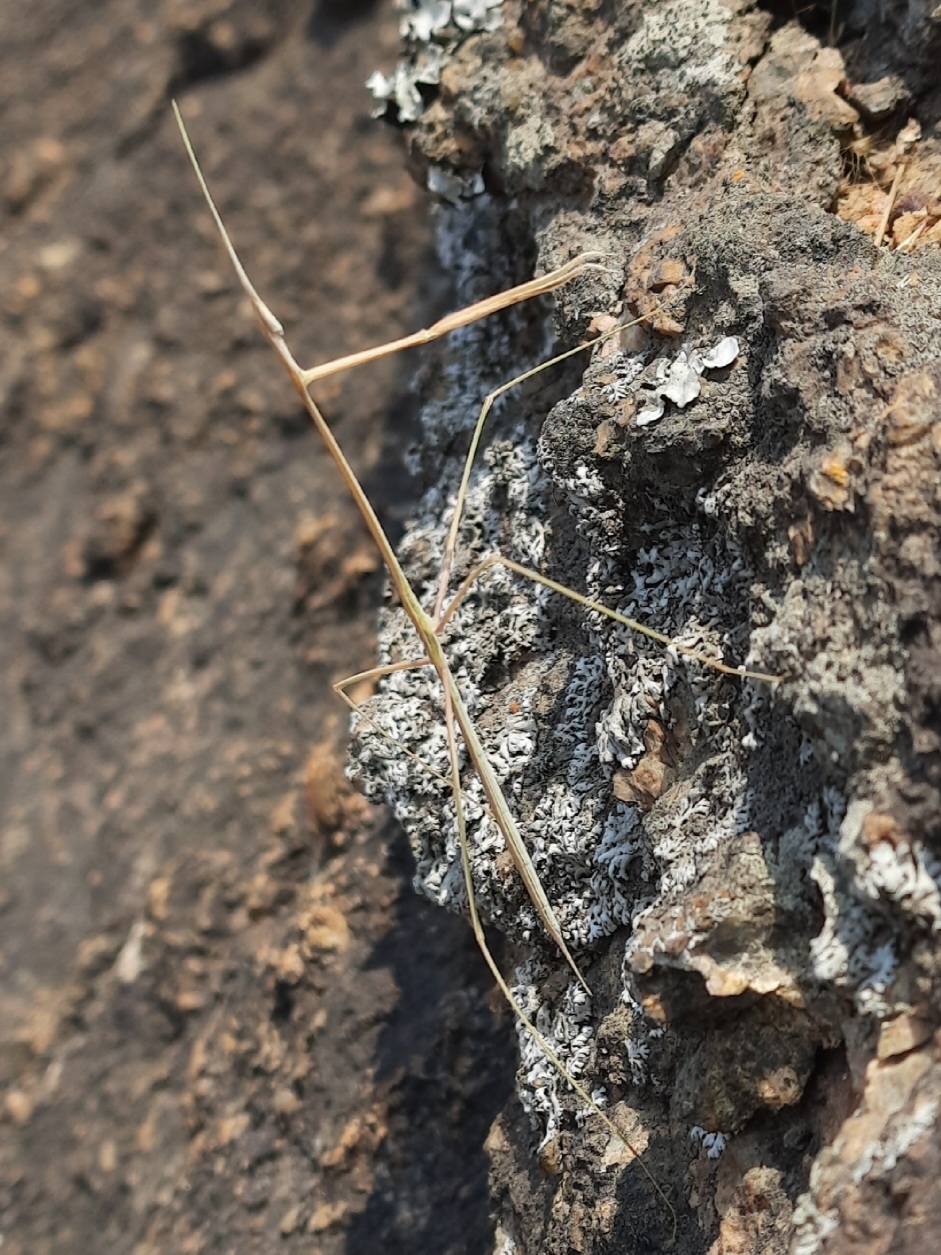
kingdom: Animalia
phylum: Arthropoda
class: Insecta
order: Mantodea
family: Eremiaphilidae
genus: Schizocephala
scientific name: Schizocephala bicornis
